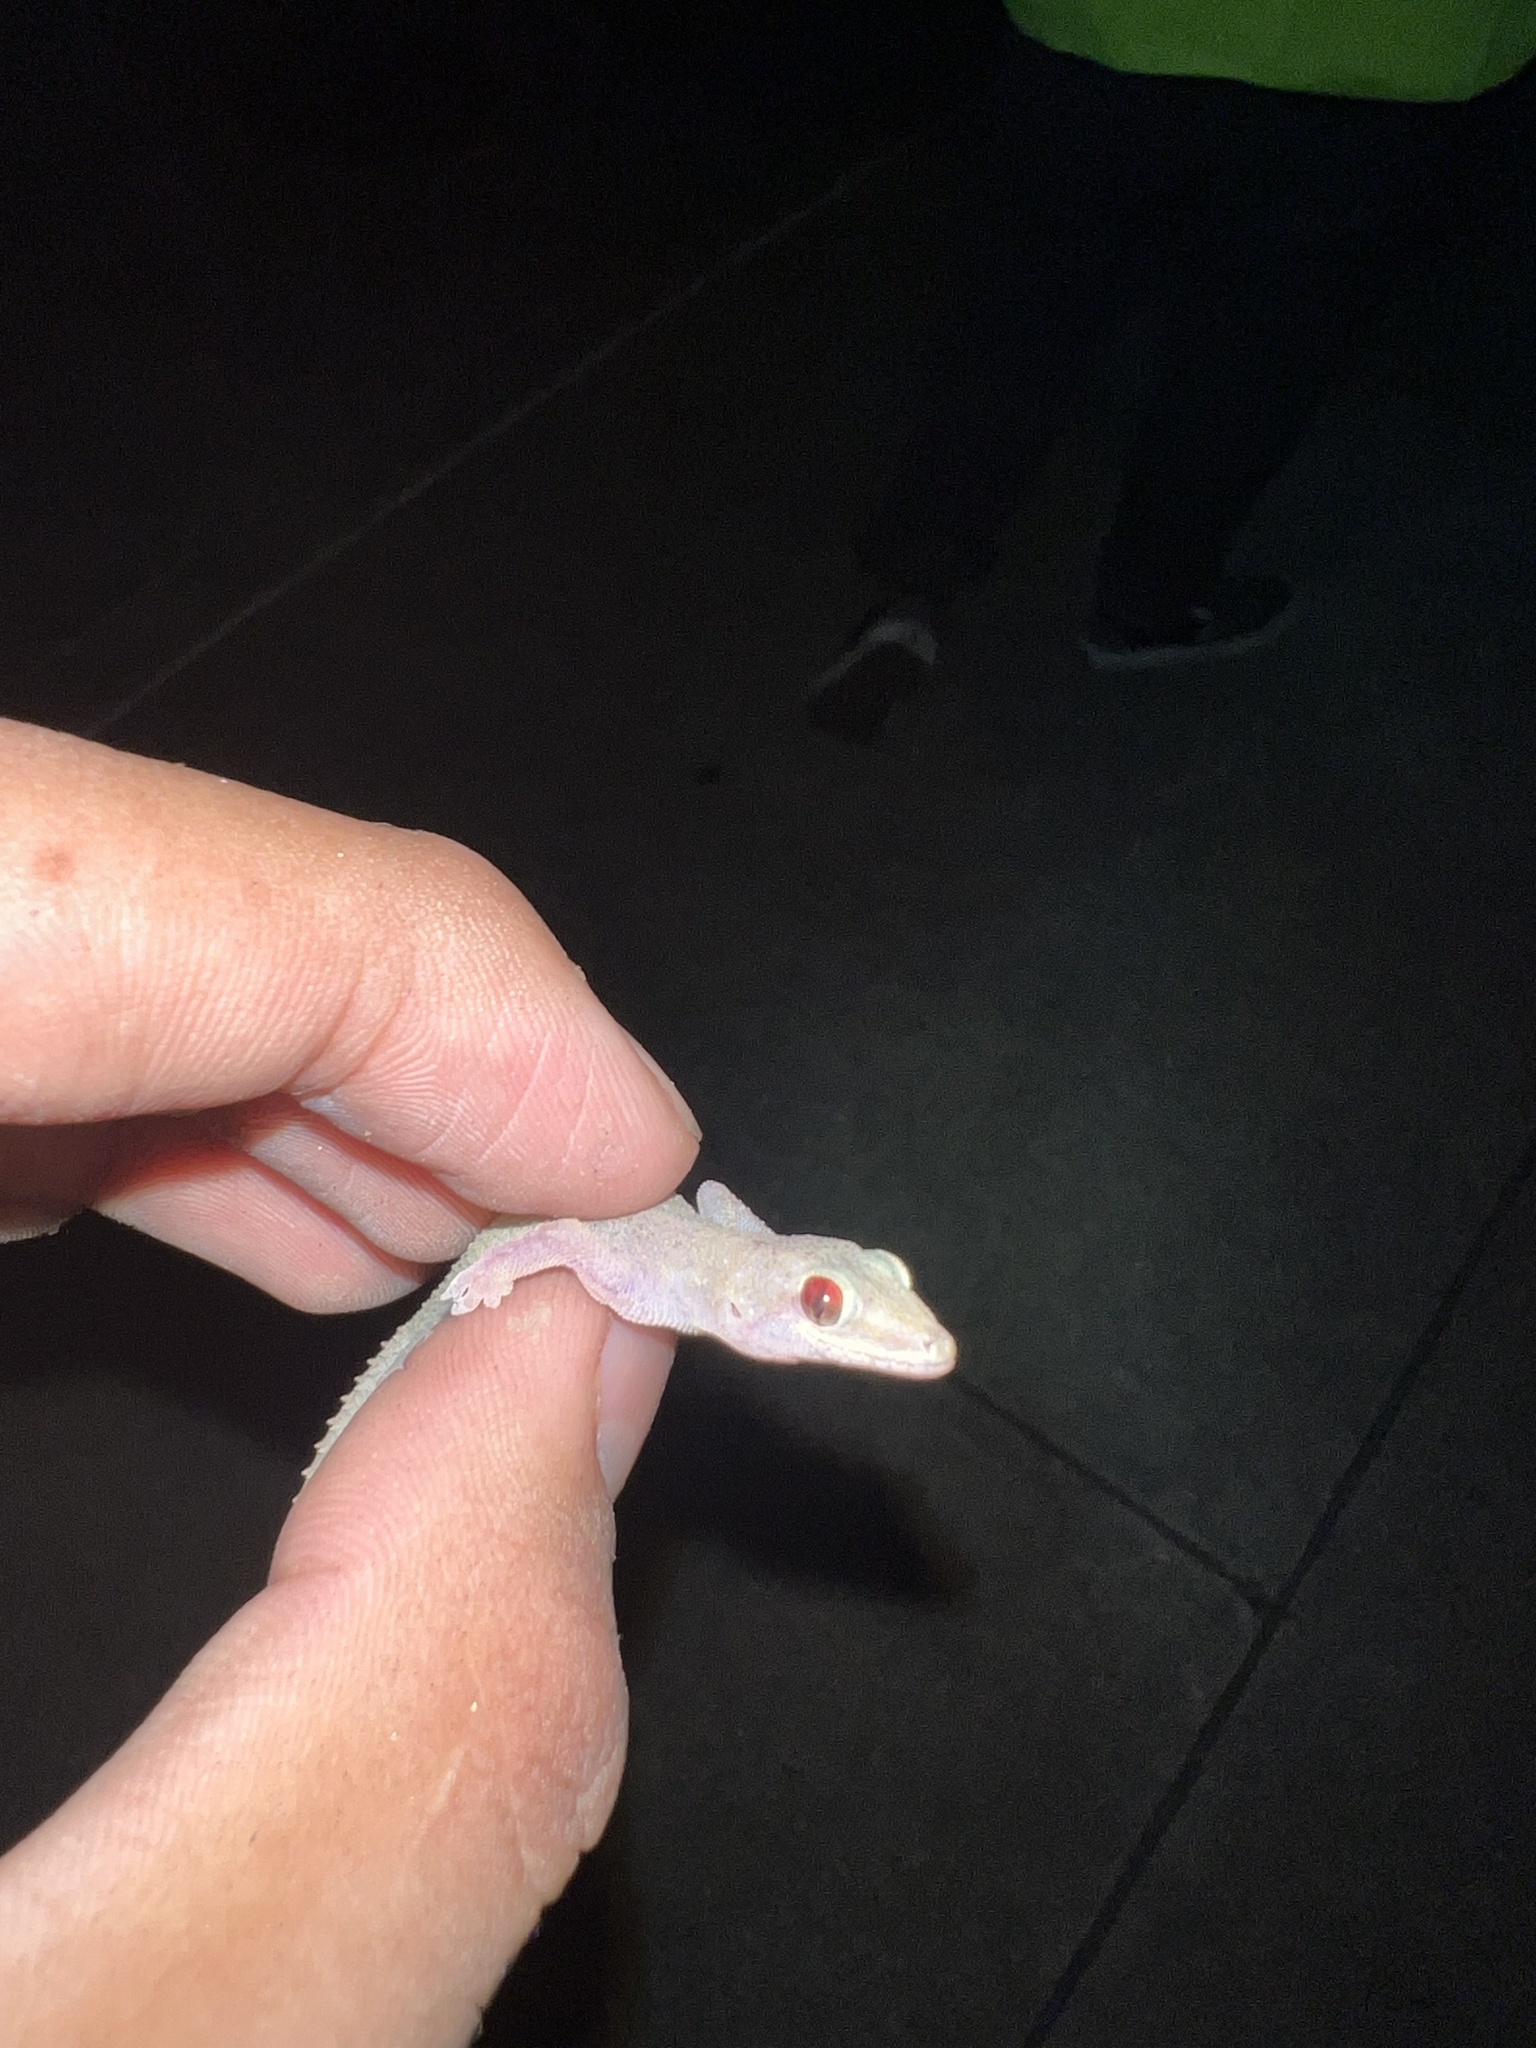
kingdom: Animalia
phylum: Chordata
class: Squamata
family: Gekkonidae
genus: Hemidactylus
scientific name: Hemidactylus parvimaculatus
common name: Spotted house gecko
